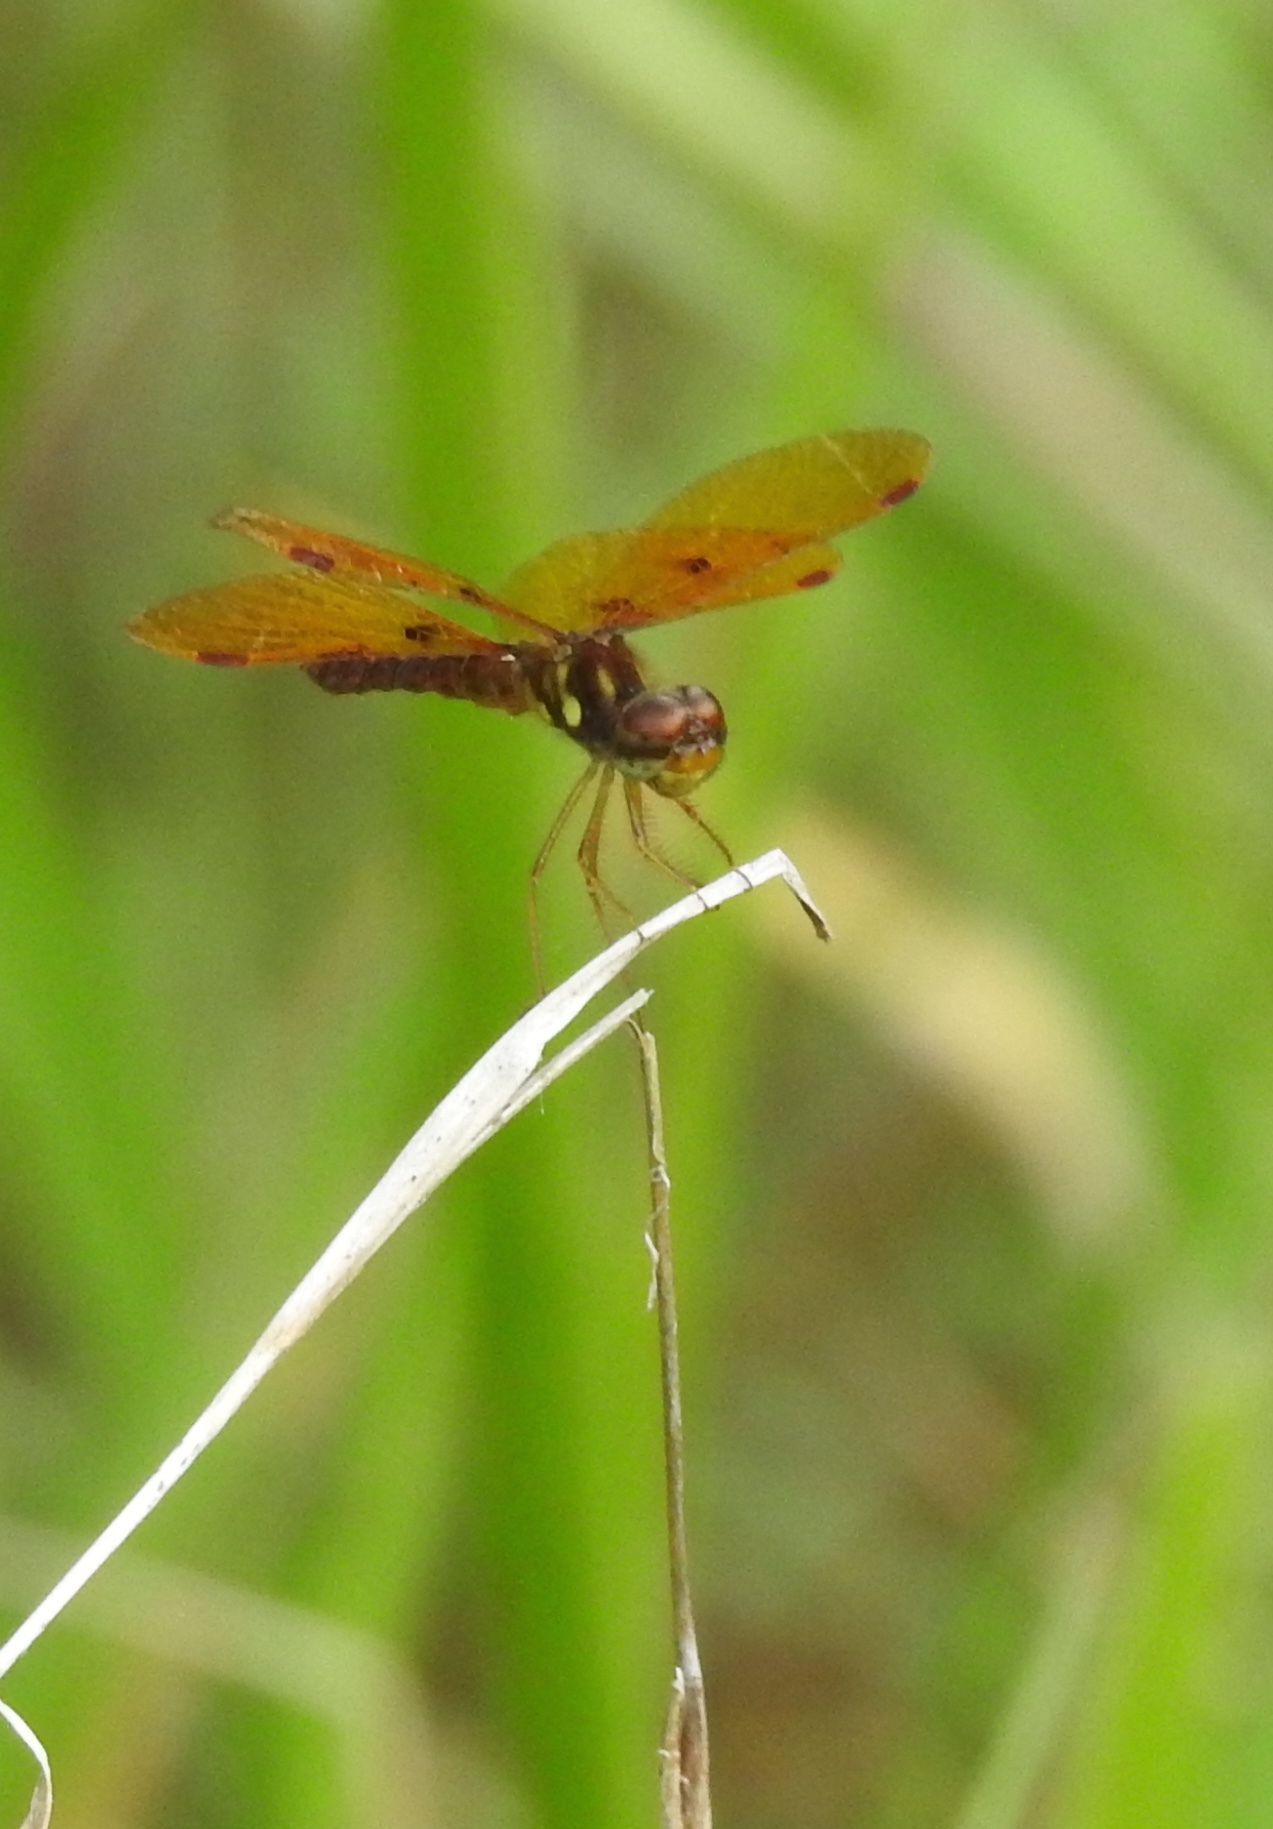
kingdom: Animalia
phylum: Arthropoda
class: Insecta
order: Odonata
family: Libellulidae
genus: Perithemis
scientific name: Perithemis tenera
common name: Eastern amberwing
